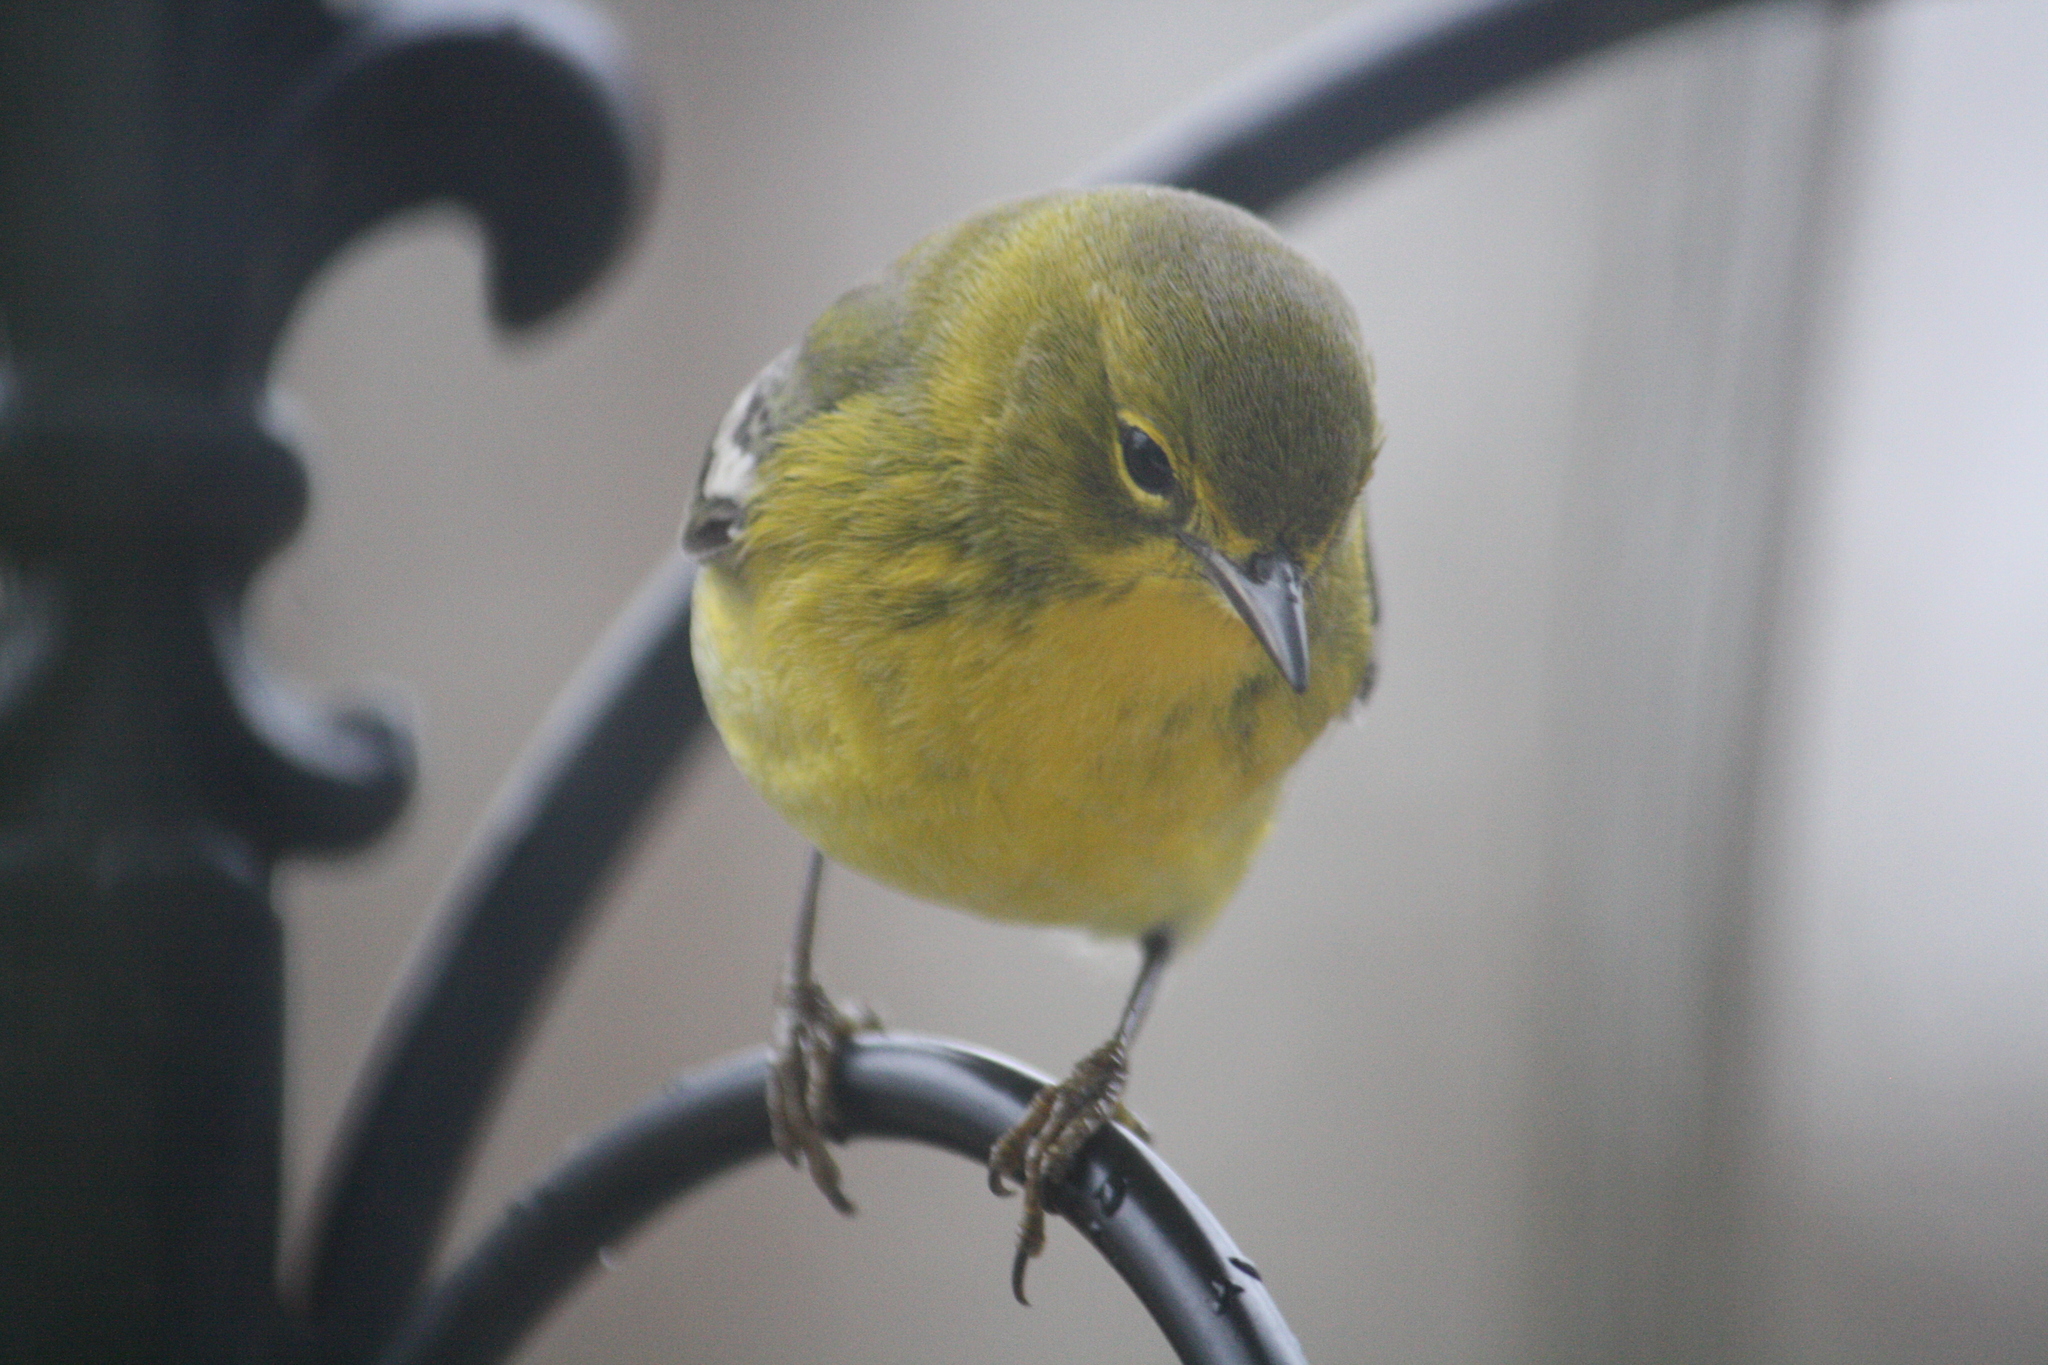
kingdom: Animalia
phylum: Chordata
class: Aves
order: Passeriformes
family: Parulidae
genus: Setophaga
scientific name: Setophaga pinus
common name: Pine warbler
